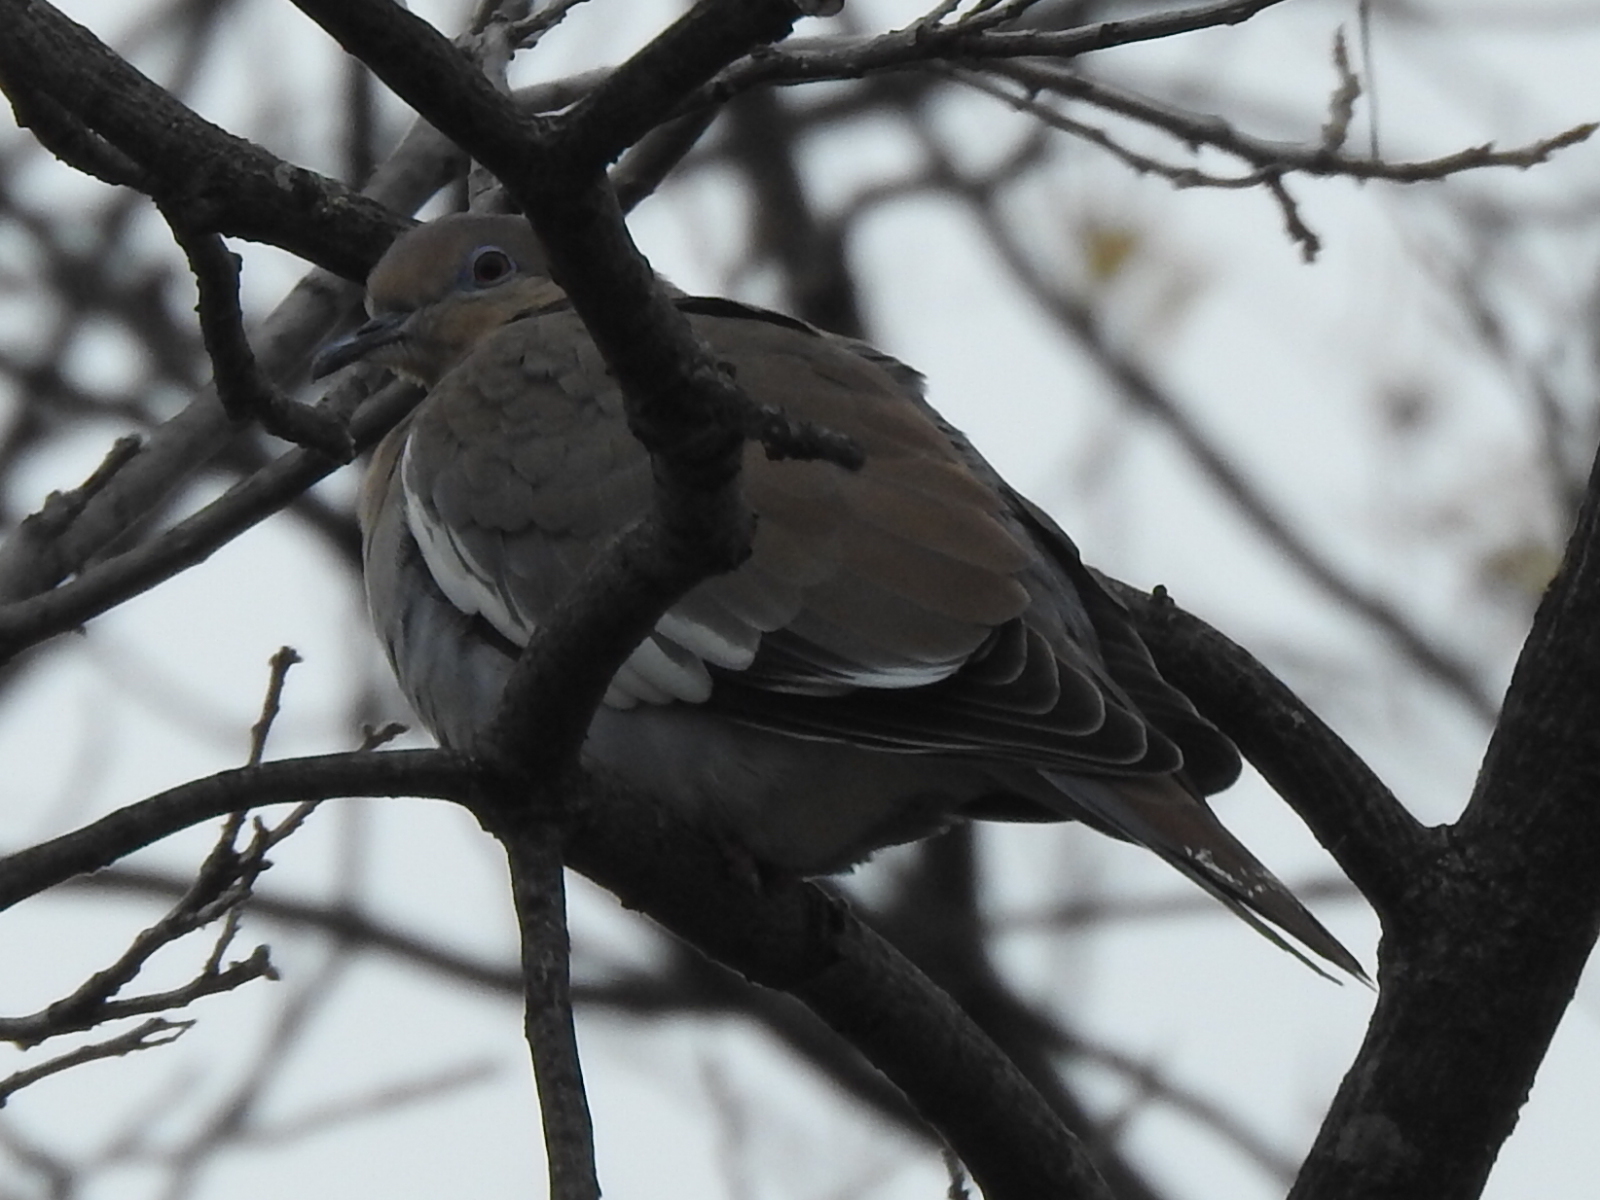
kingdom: Animalia
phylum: Chordata
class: Aves
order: Columbiformes
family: Columbidae
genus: Zenaida
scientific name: Zenaida asiatica
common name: White-winged dove
